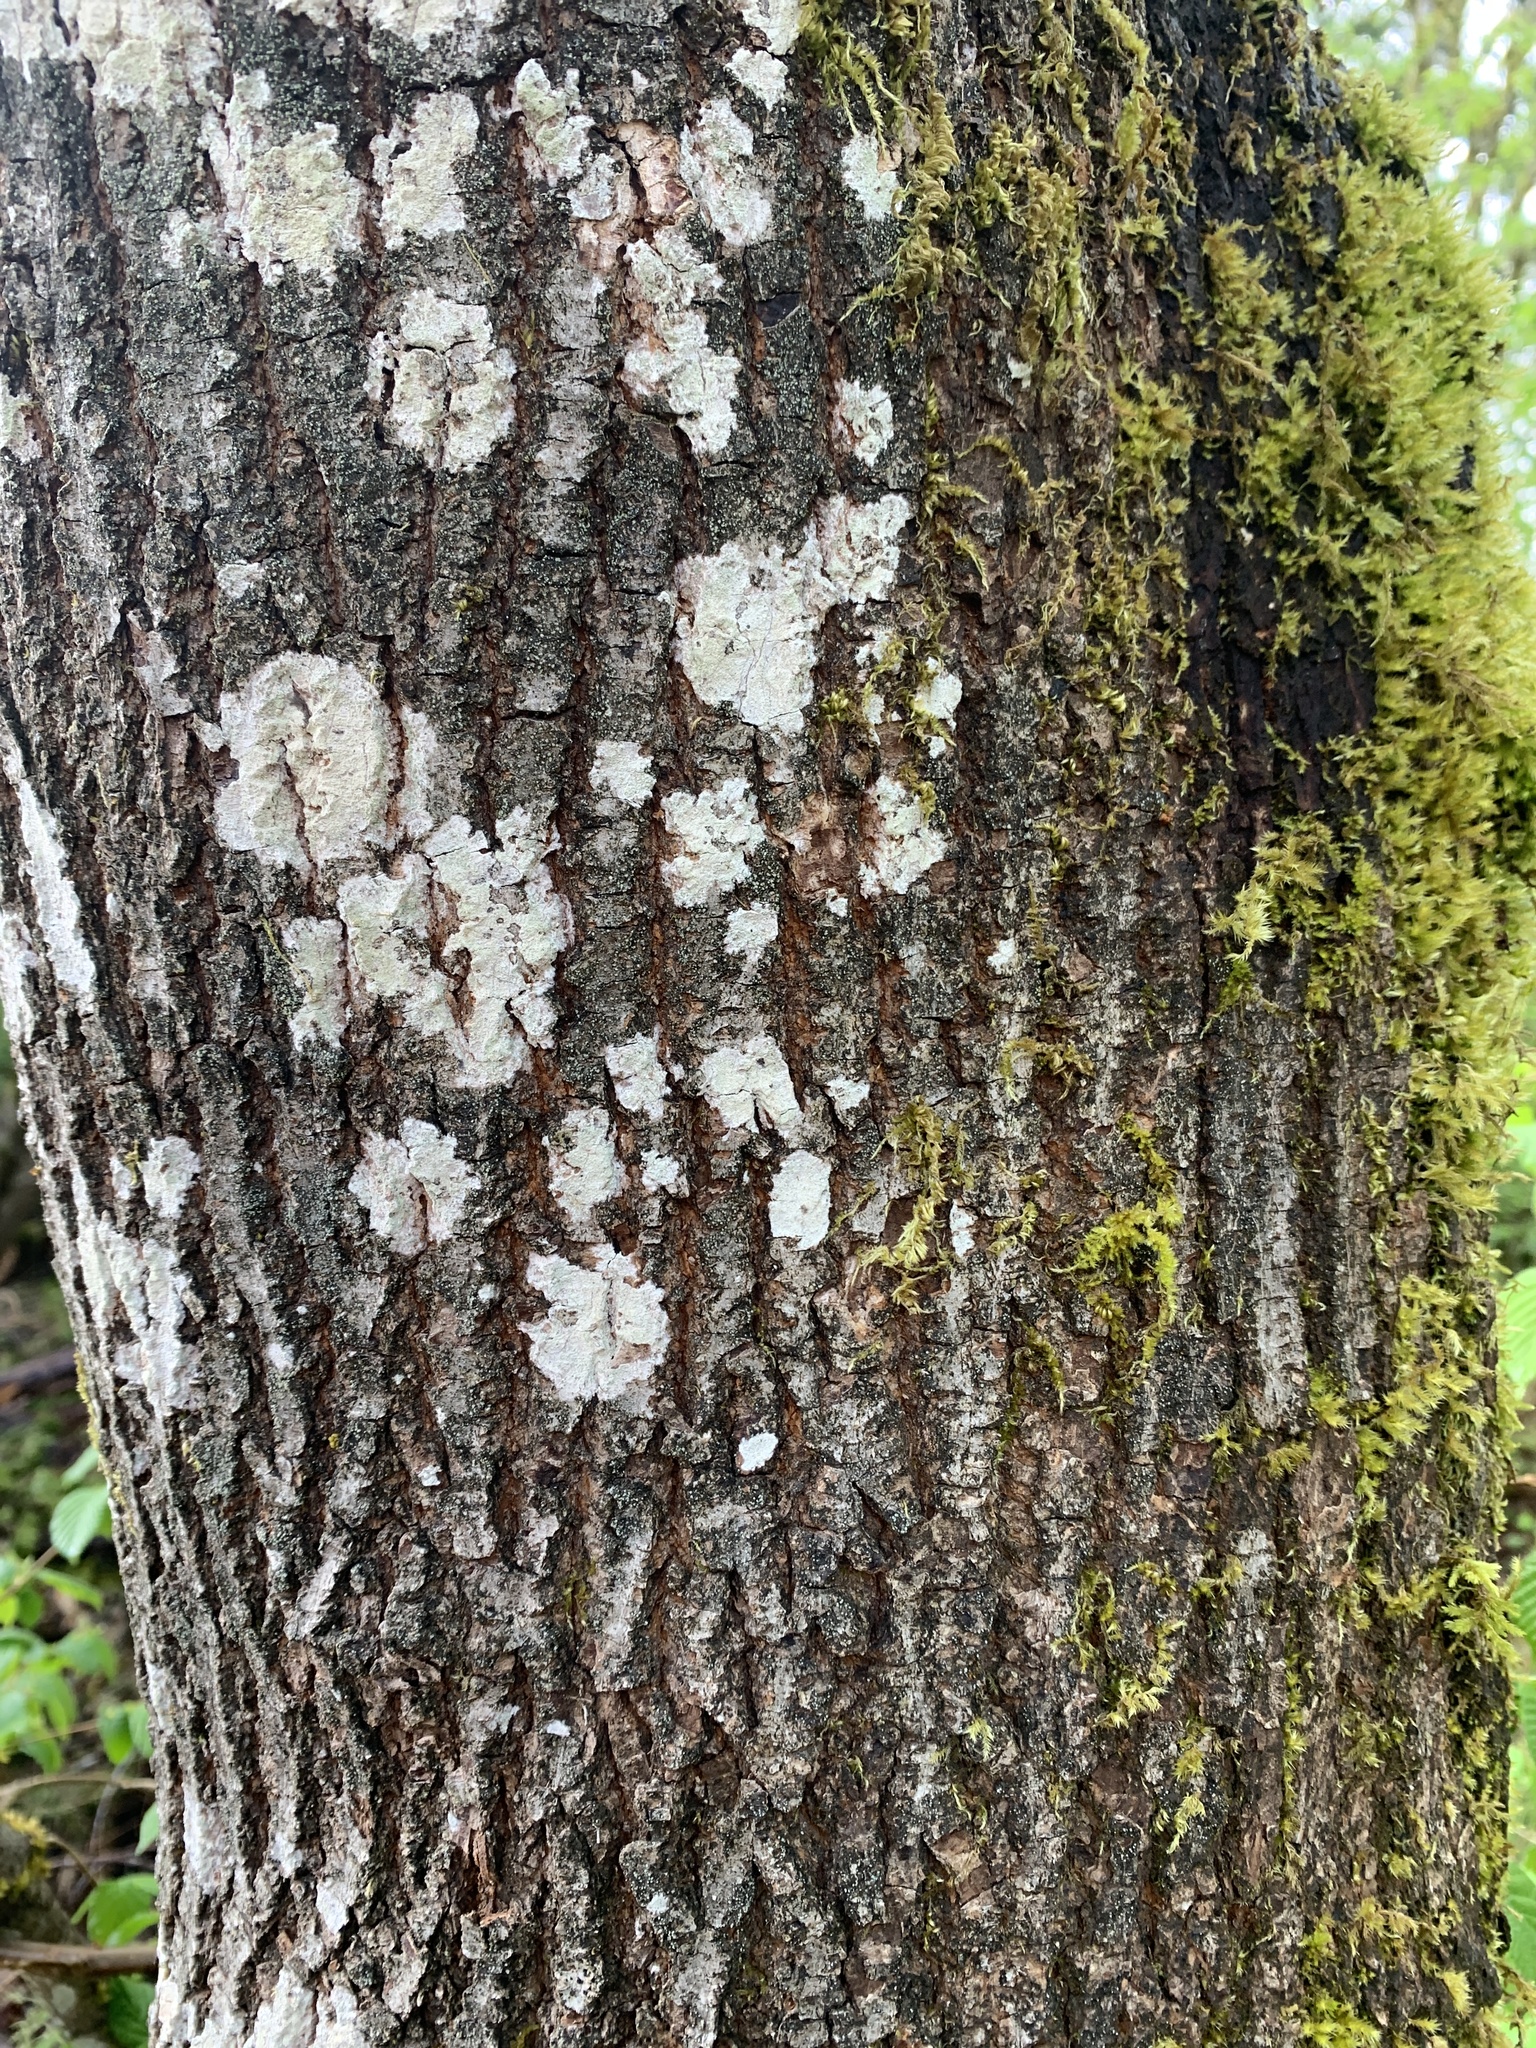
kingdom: Plantae
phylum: Tracheophyta
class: Magnoliopsida
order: Sapindales
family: Sapindaceae
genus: Acer
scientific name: Acer macrophyllum
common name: Oregon maple
